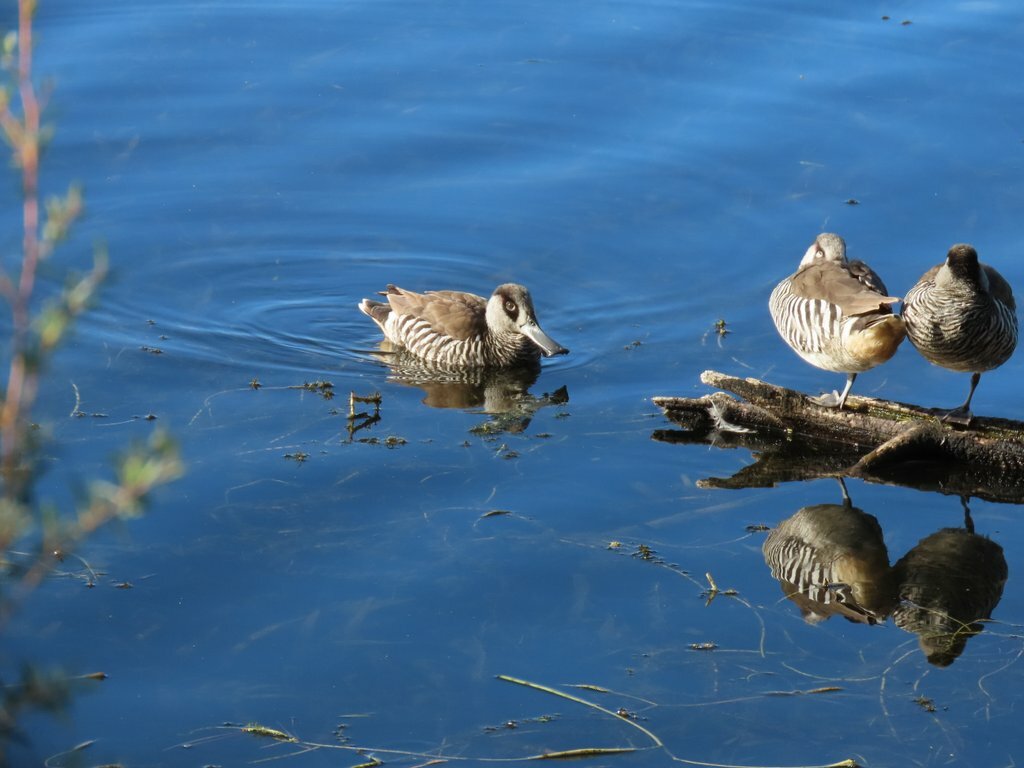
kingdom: Animalia
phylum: Chordata
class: Aves
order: Anseriformes
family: Anatidae
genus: Malacorhynchus
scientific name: Malacorhynchus membranaceus
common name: Pink-eared duck
